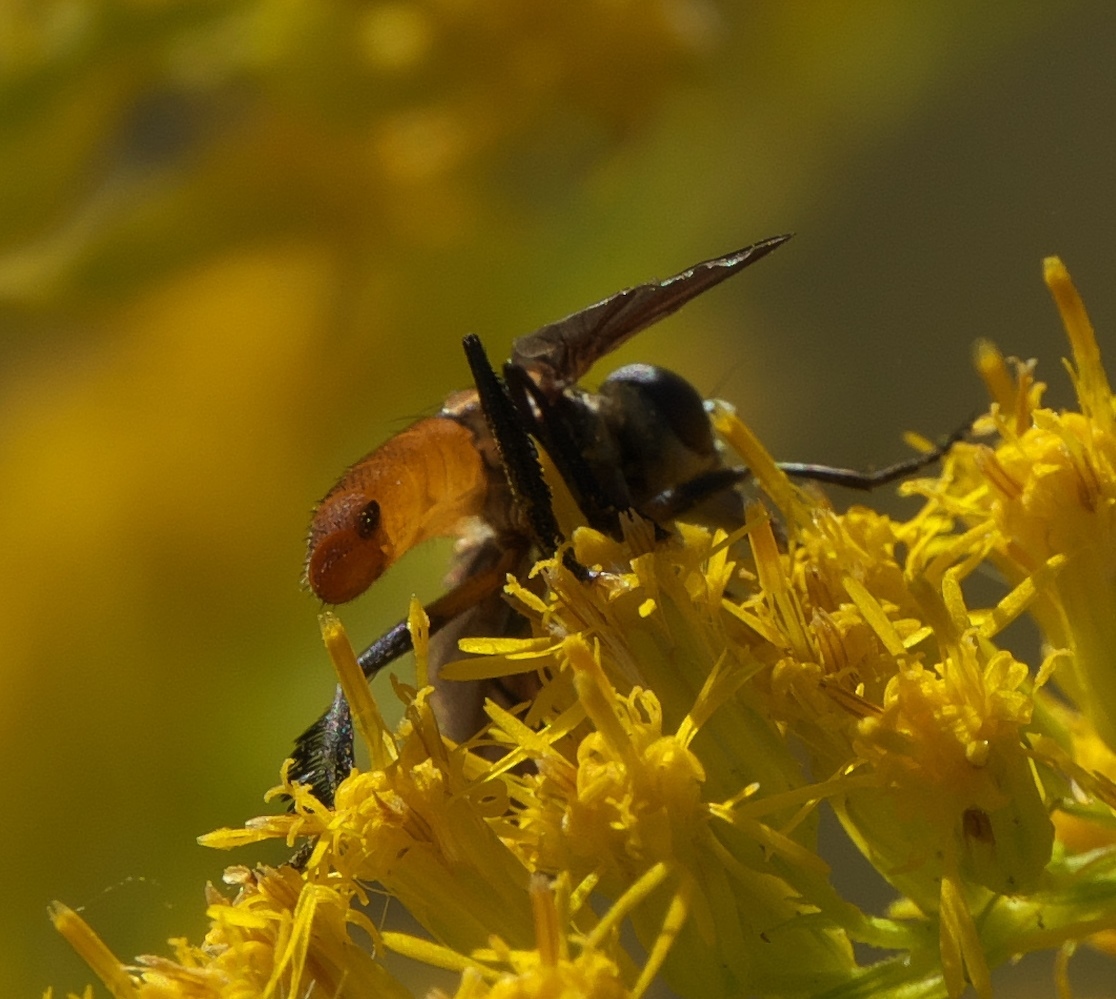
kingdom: Animalia
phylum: Arthropoda
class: Insecta
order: Diptera
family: Tachinidae
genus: Trichopoda
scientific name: Trichopoda pennipes
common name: Tachinid fly
